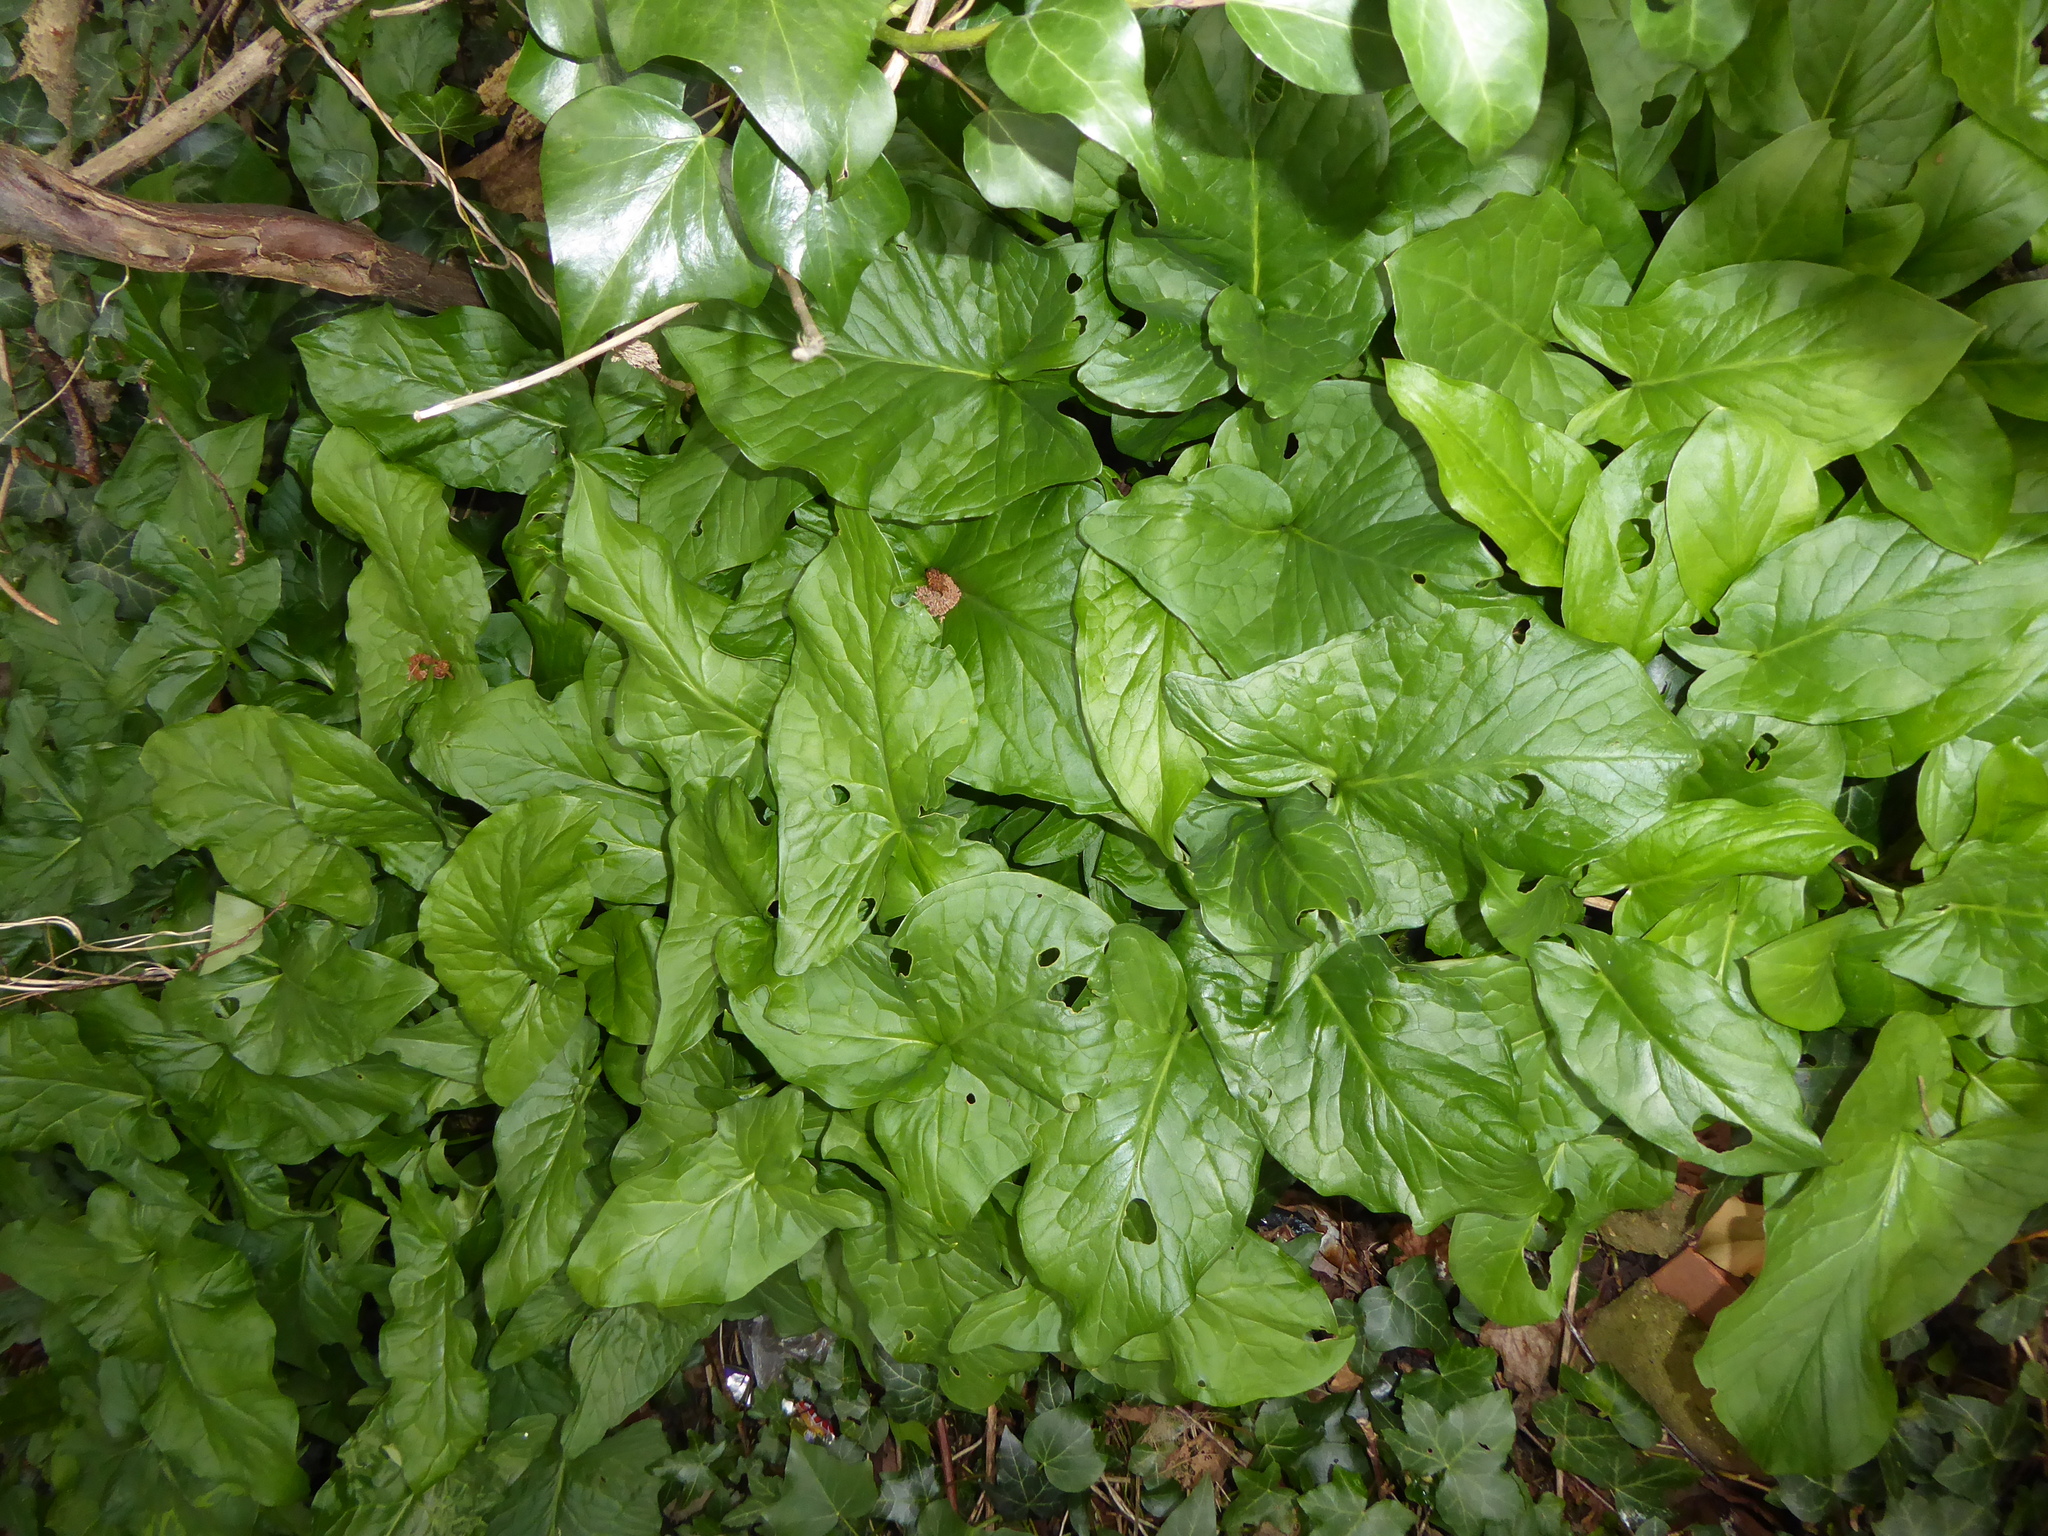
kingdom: Plantae
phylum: Tracheophyta
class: Liliopsida
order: Alismatales
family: Araceae
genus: Arum
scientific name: Arum maculatum
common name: Lords-and-ladies
